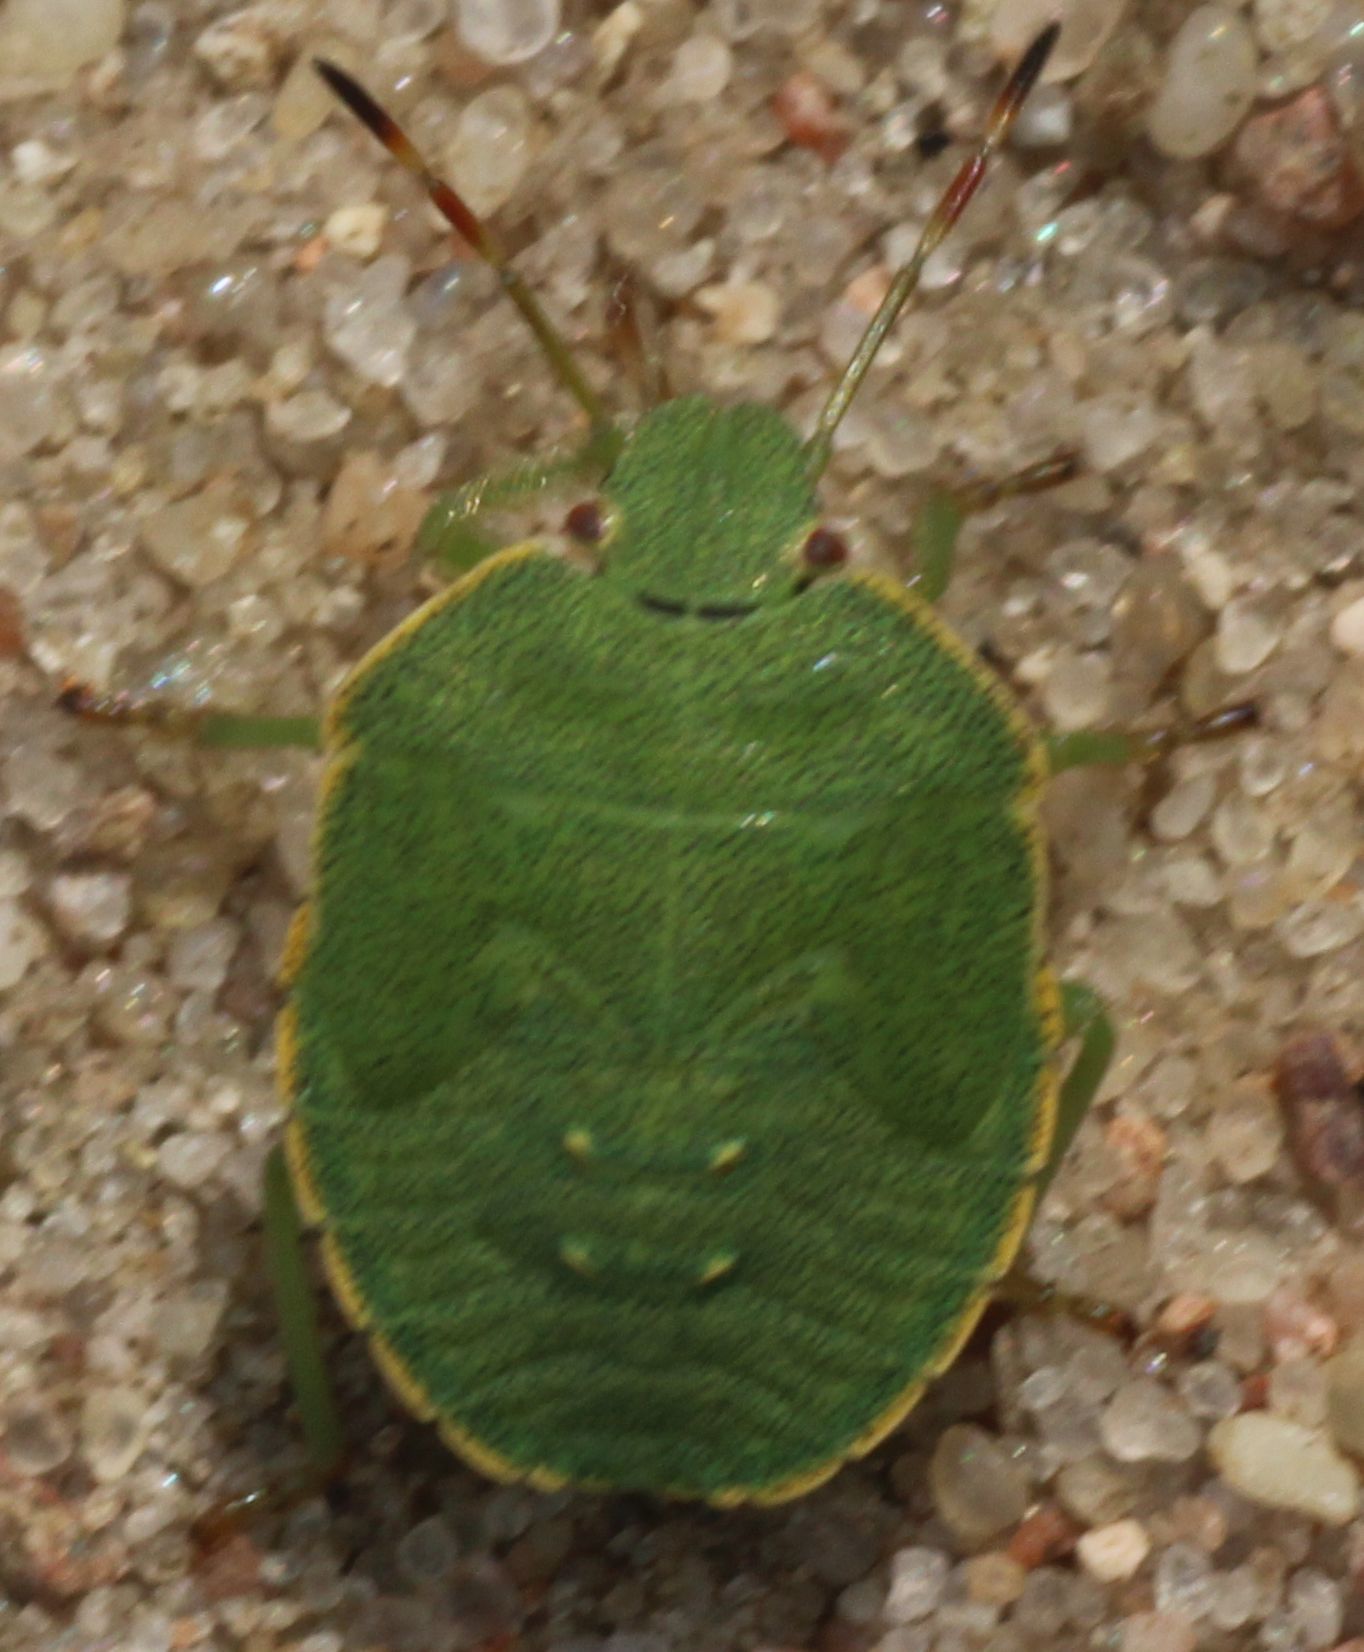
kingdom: Animalia
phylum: Arthropoda
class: Insecta
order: Hemiptera
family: Pentatomidae
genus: Palomena
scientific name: Palomena prasina
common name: Green shieldbug
